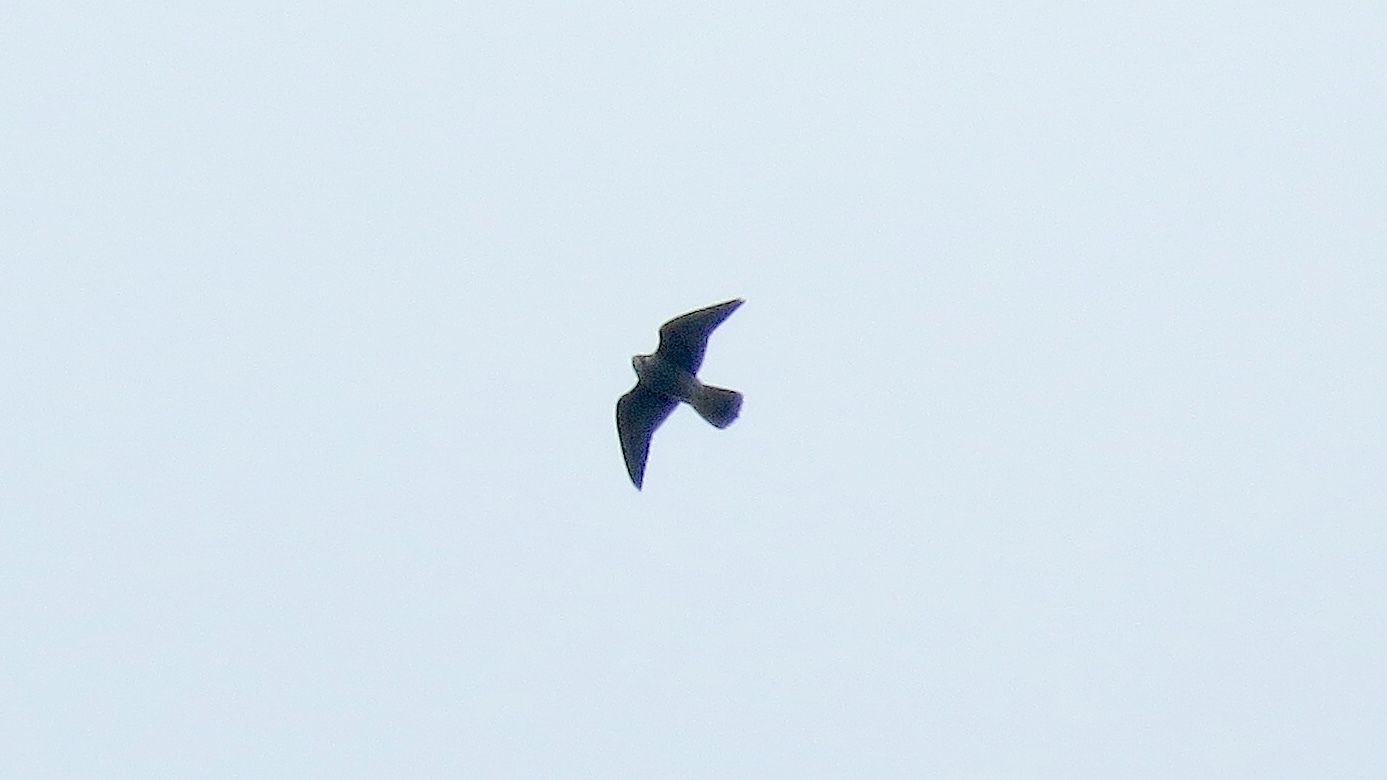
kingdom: Animalia
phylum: Chordata
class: Aves
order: Falconiformes
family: Falconidae
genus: Falco
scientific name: Falco peregrinus
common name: Peregrine falcon
